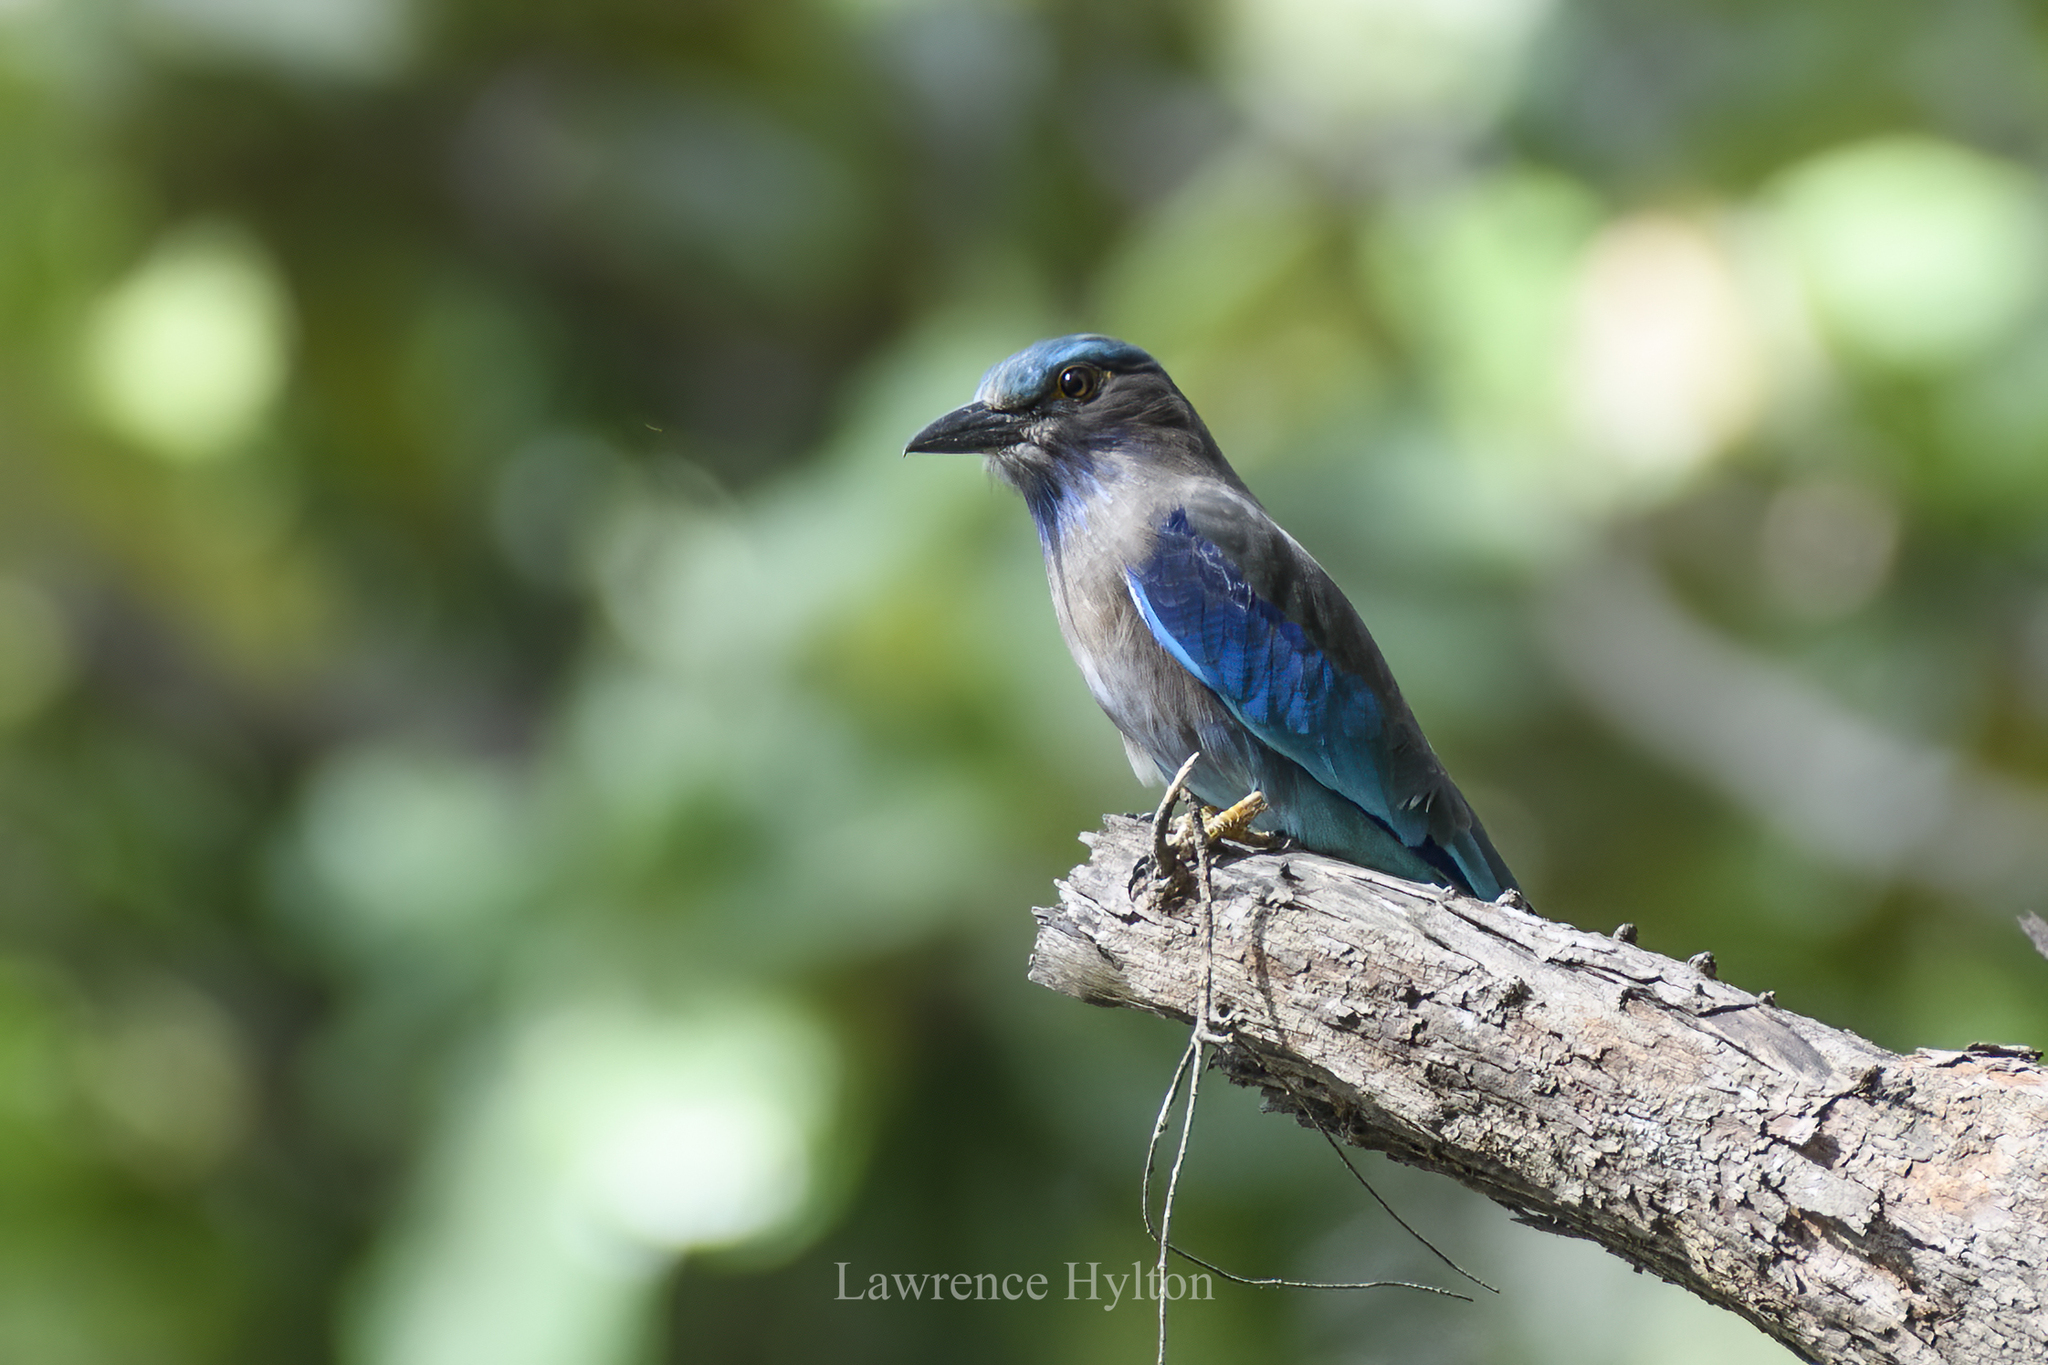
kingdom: Animalia
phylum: Chordata
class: Aves
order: Coraciiformes
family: Coraciidae
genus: Coracias
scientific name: Coracias affinis
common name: Indochinese roller
